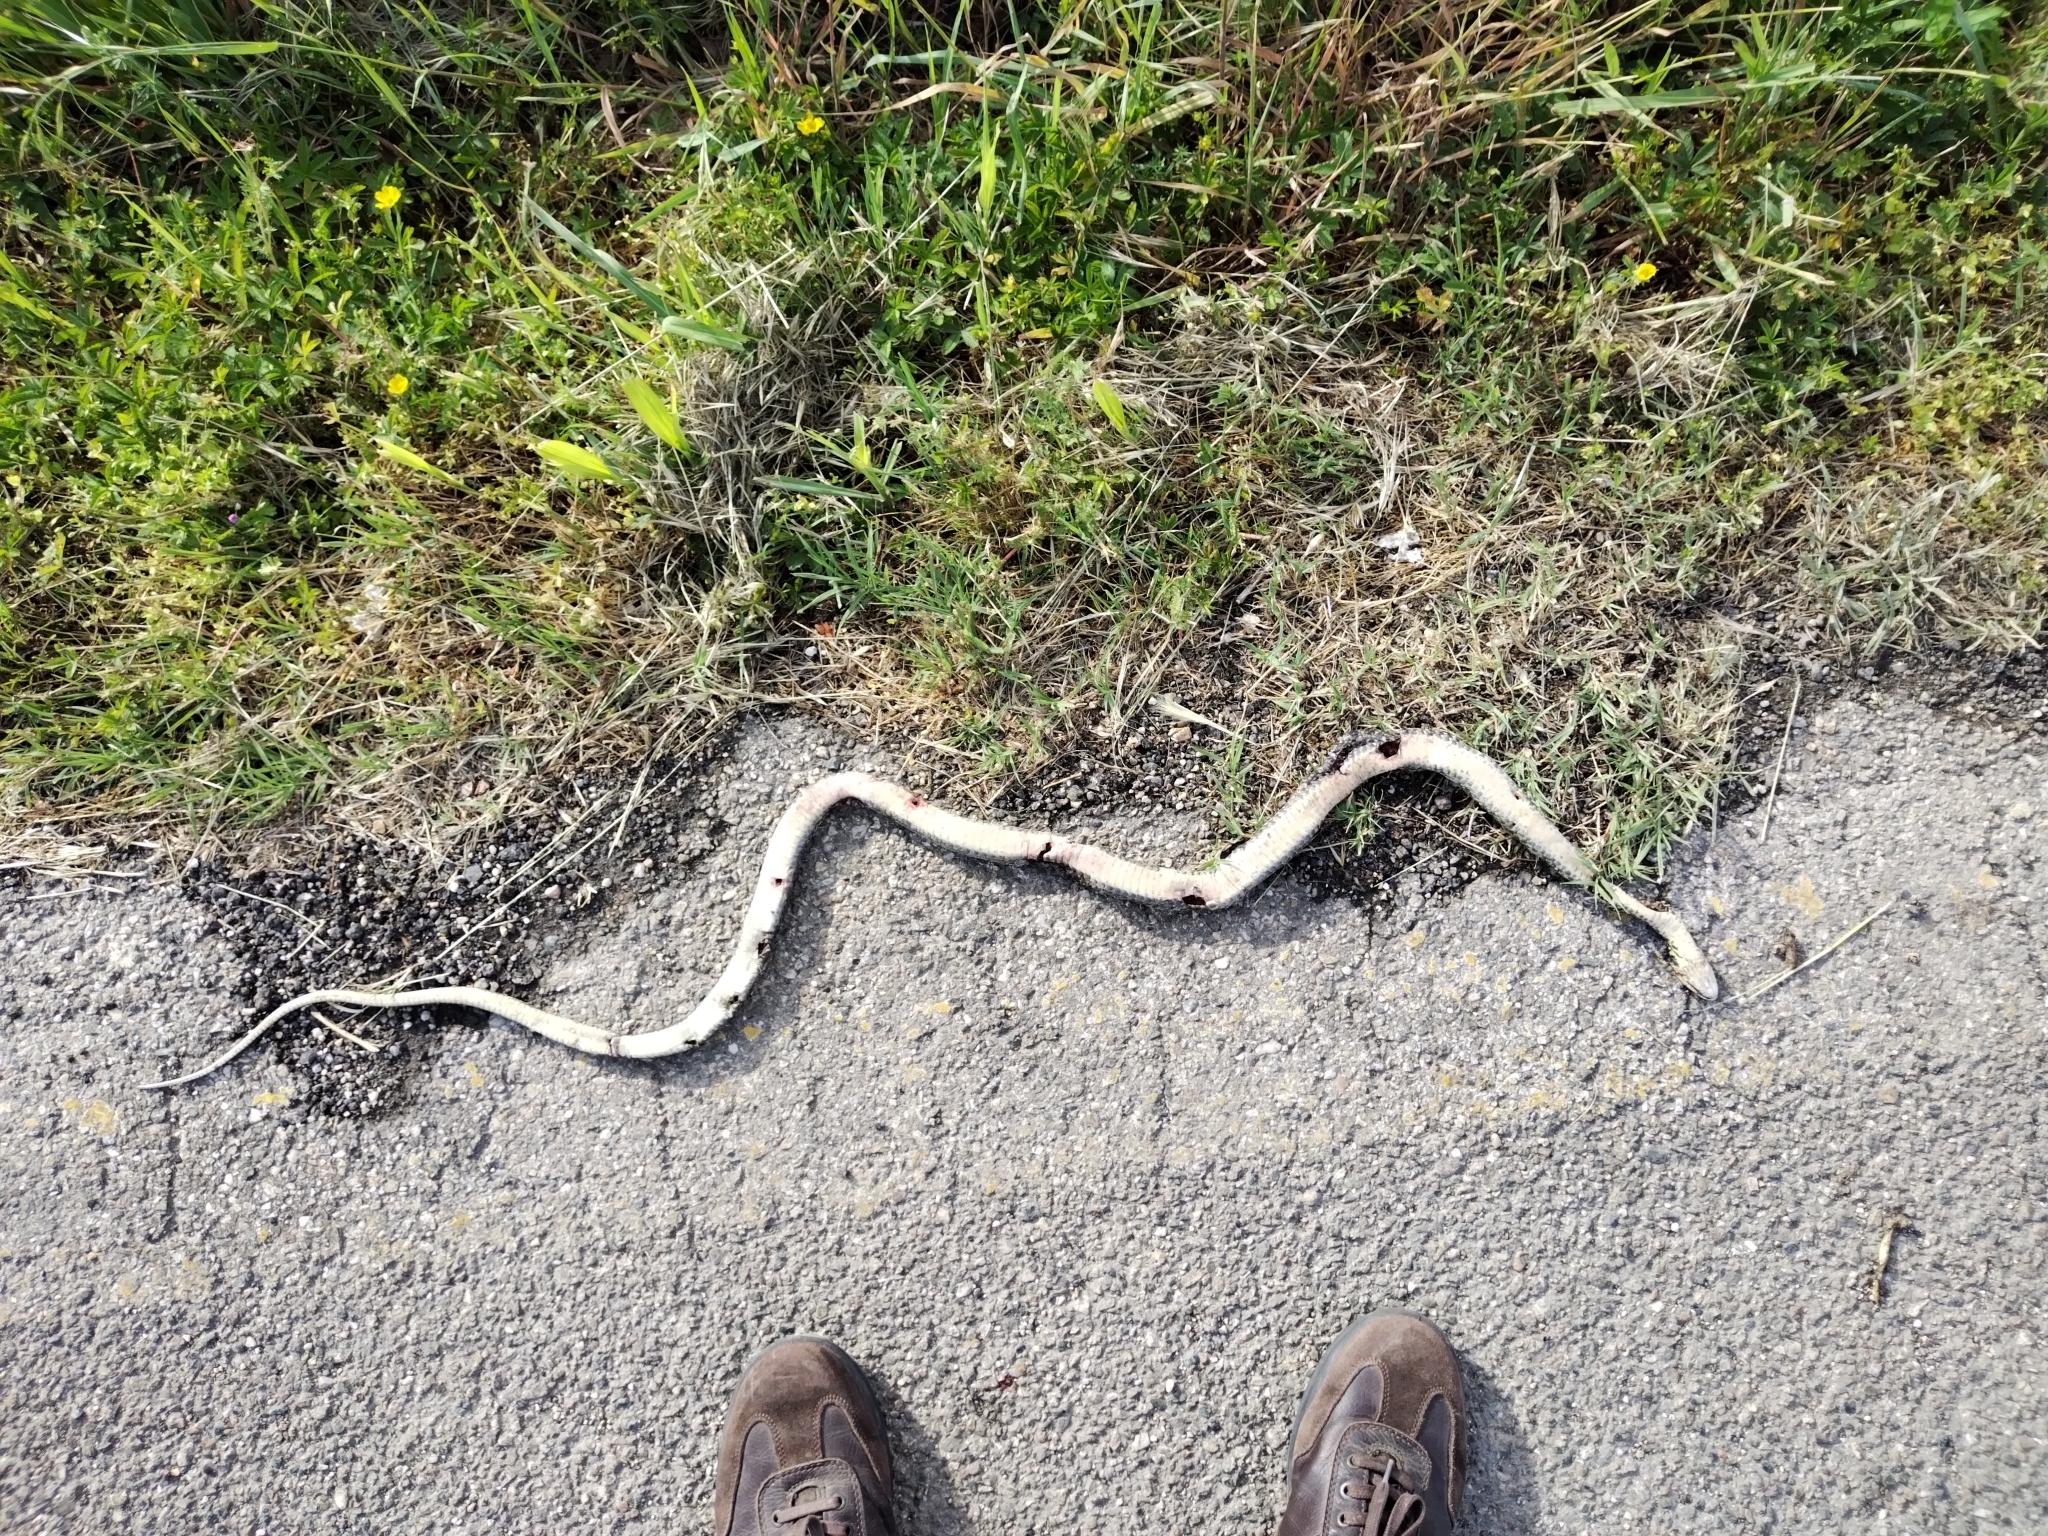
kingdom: Animalia
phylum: Chordata
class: Squamata
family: Colubridae
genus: Hierophis
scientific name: Hierophis viridiflavus
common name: Green whip snake
